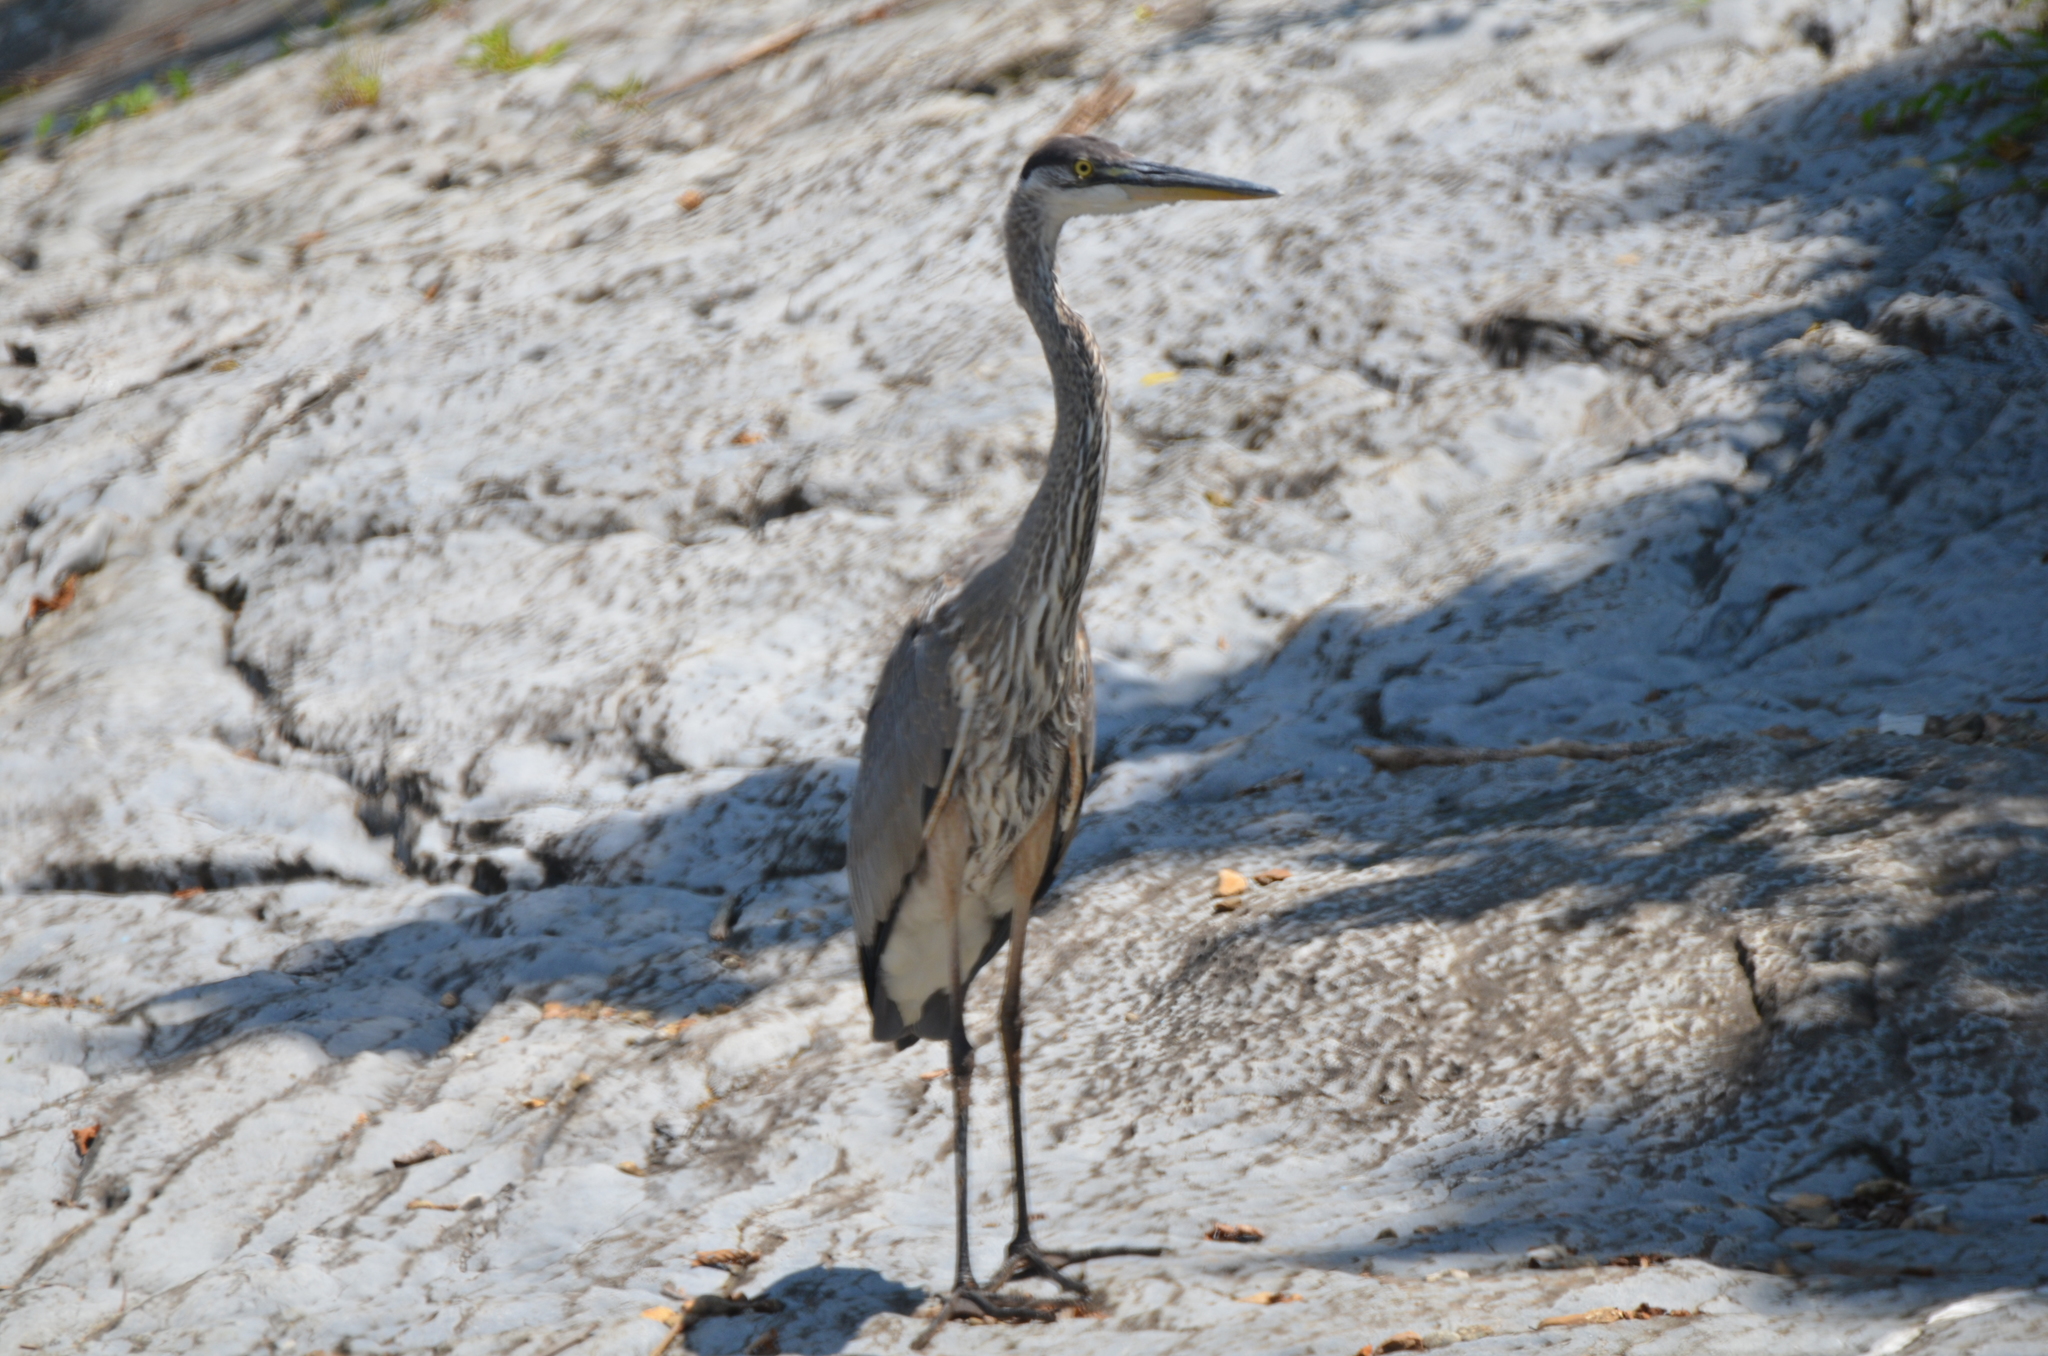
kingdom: Animalia
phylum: Chordata
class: Aves
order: Pelecaniformes
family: Ardeidae
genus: Ardea
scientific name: Ardea herodias
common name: Great blue heron
